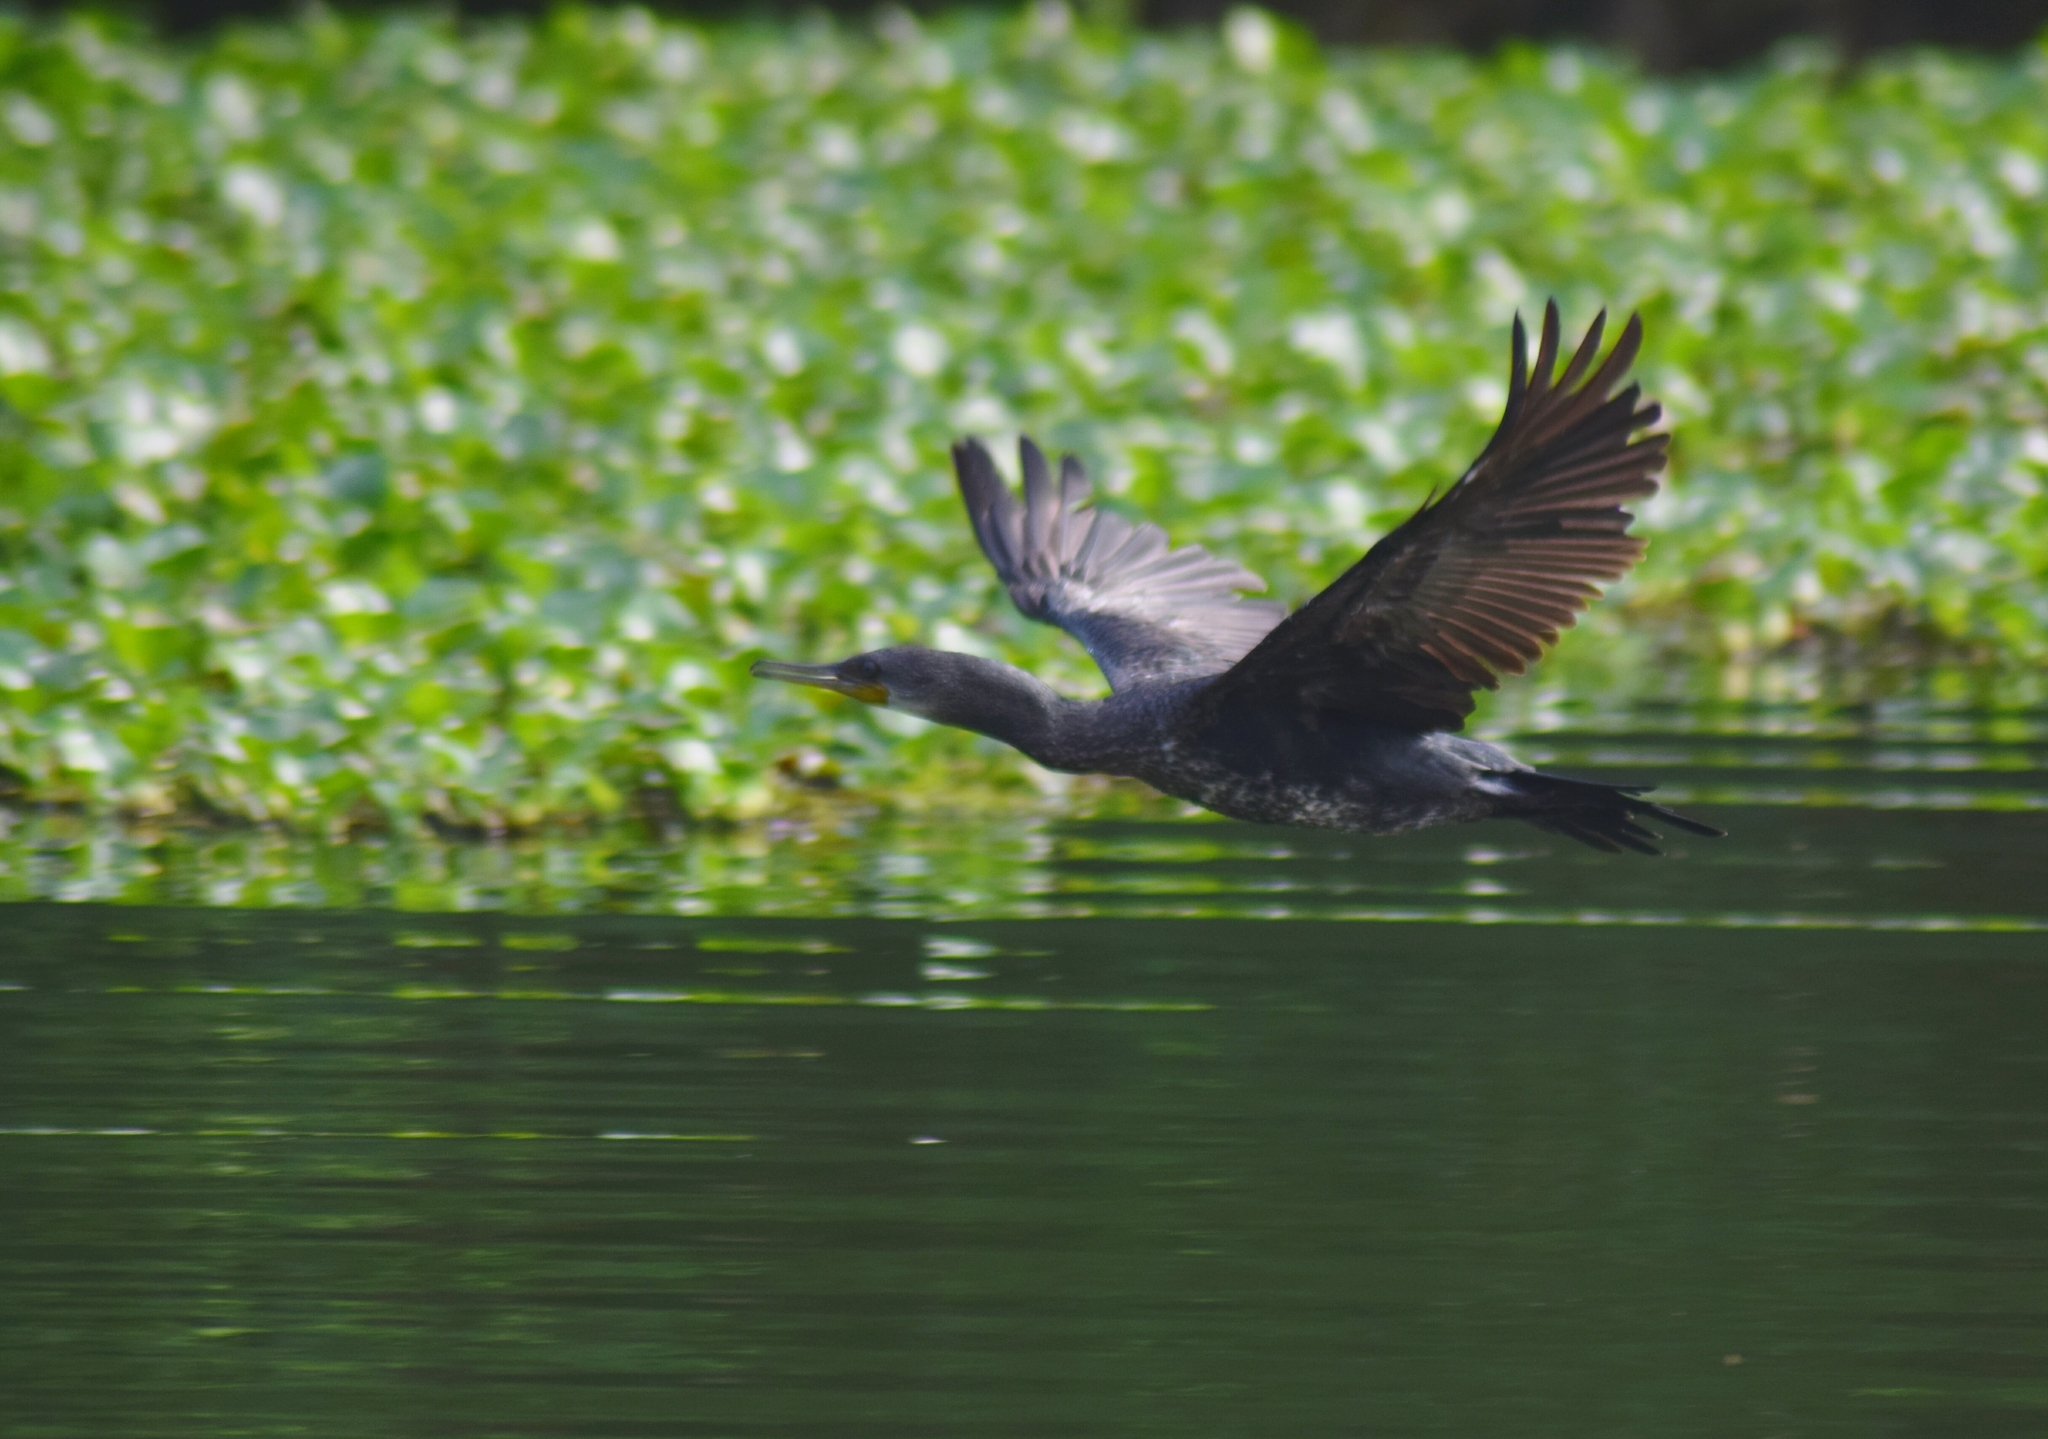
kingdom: Animalia
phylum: Chordata
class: Aves
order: Suliformes
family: Phalacrocoracidae
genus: Phalacrocorax
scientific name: Phalacrocorax fuscicollis
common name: Indian cormorant
